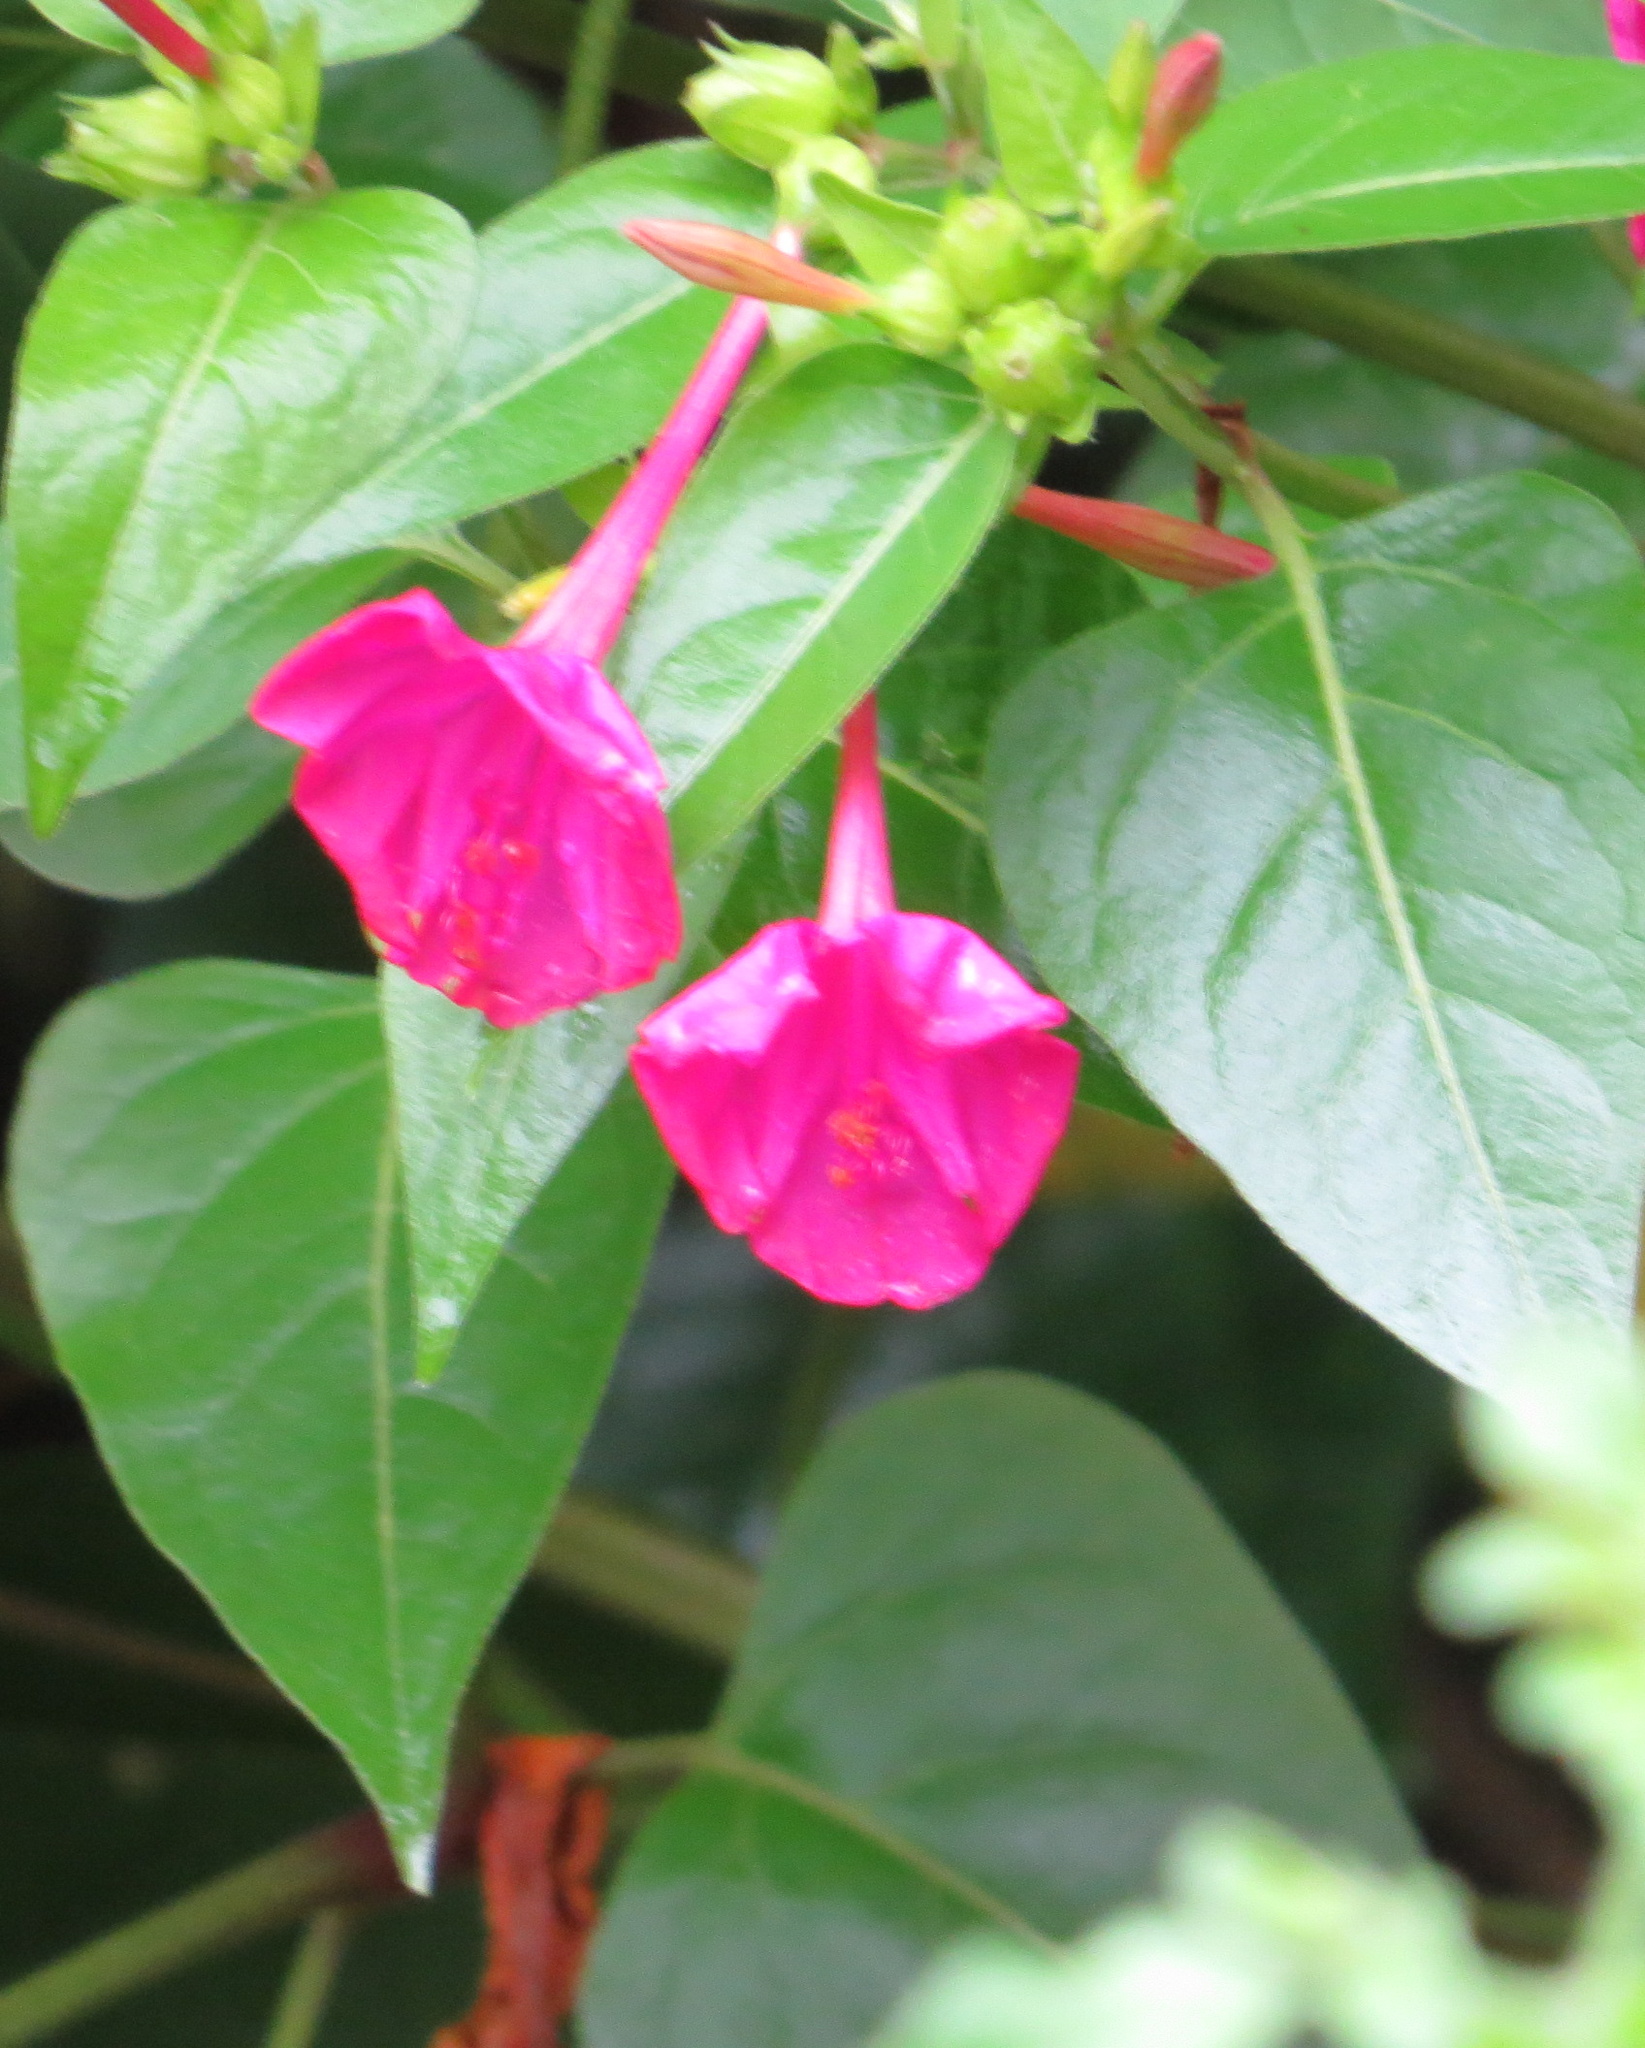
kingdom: Plantae
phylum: Tracheophyta
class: Magnoliopsida
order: Caryophyllales
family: Nyctaginaceae
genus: Mirabilis
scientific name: Mirabilis jalapa
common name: Marvel-of-peru
